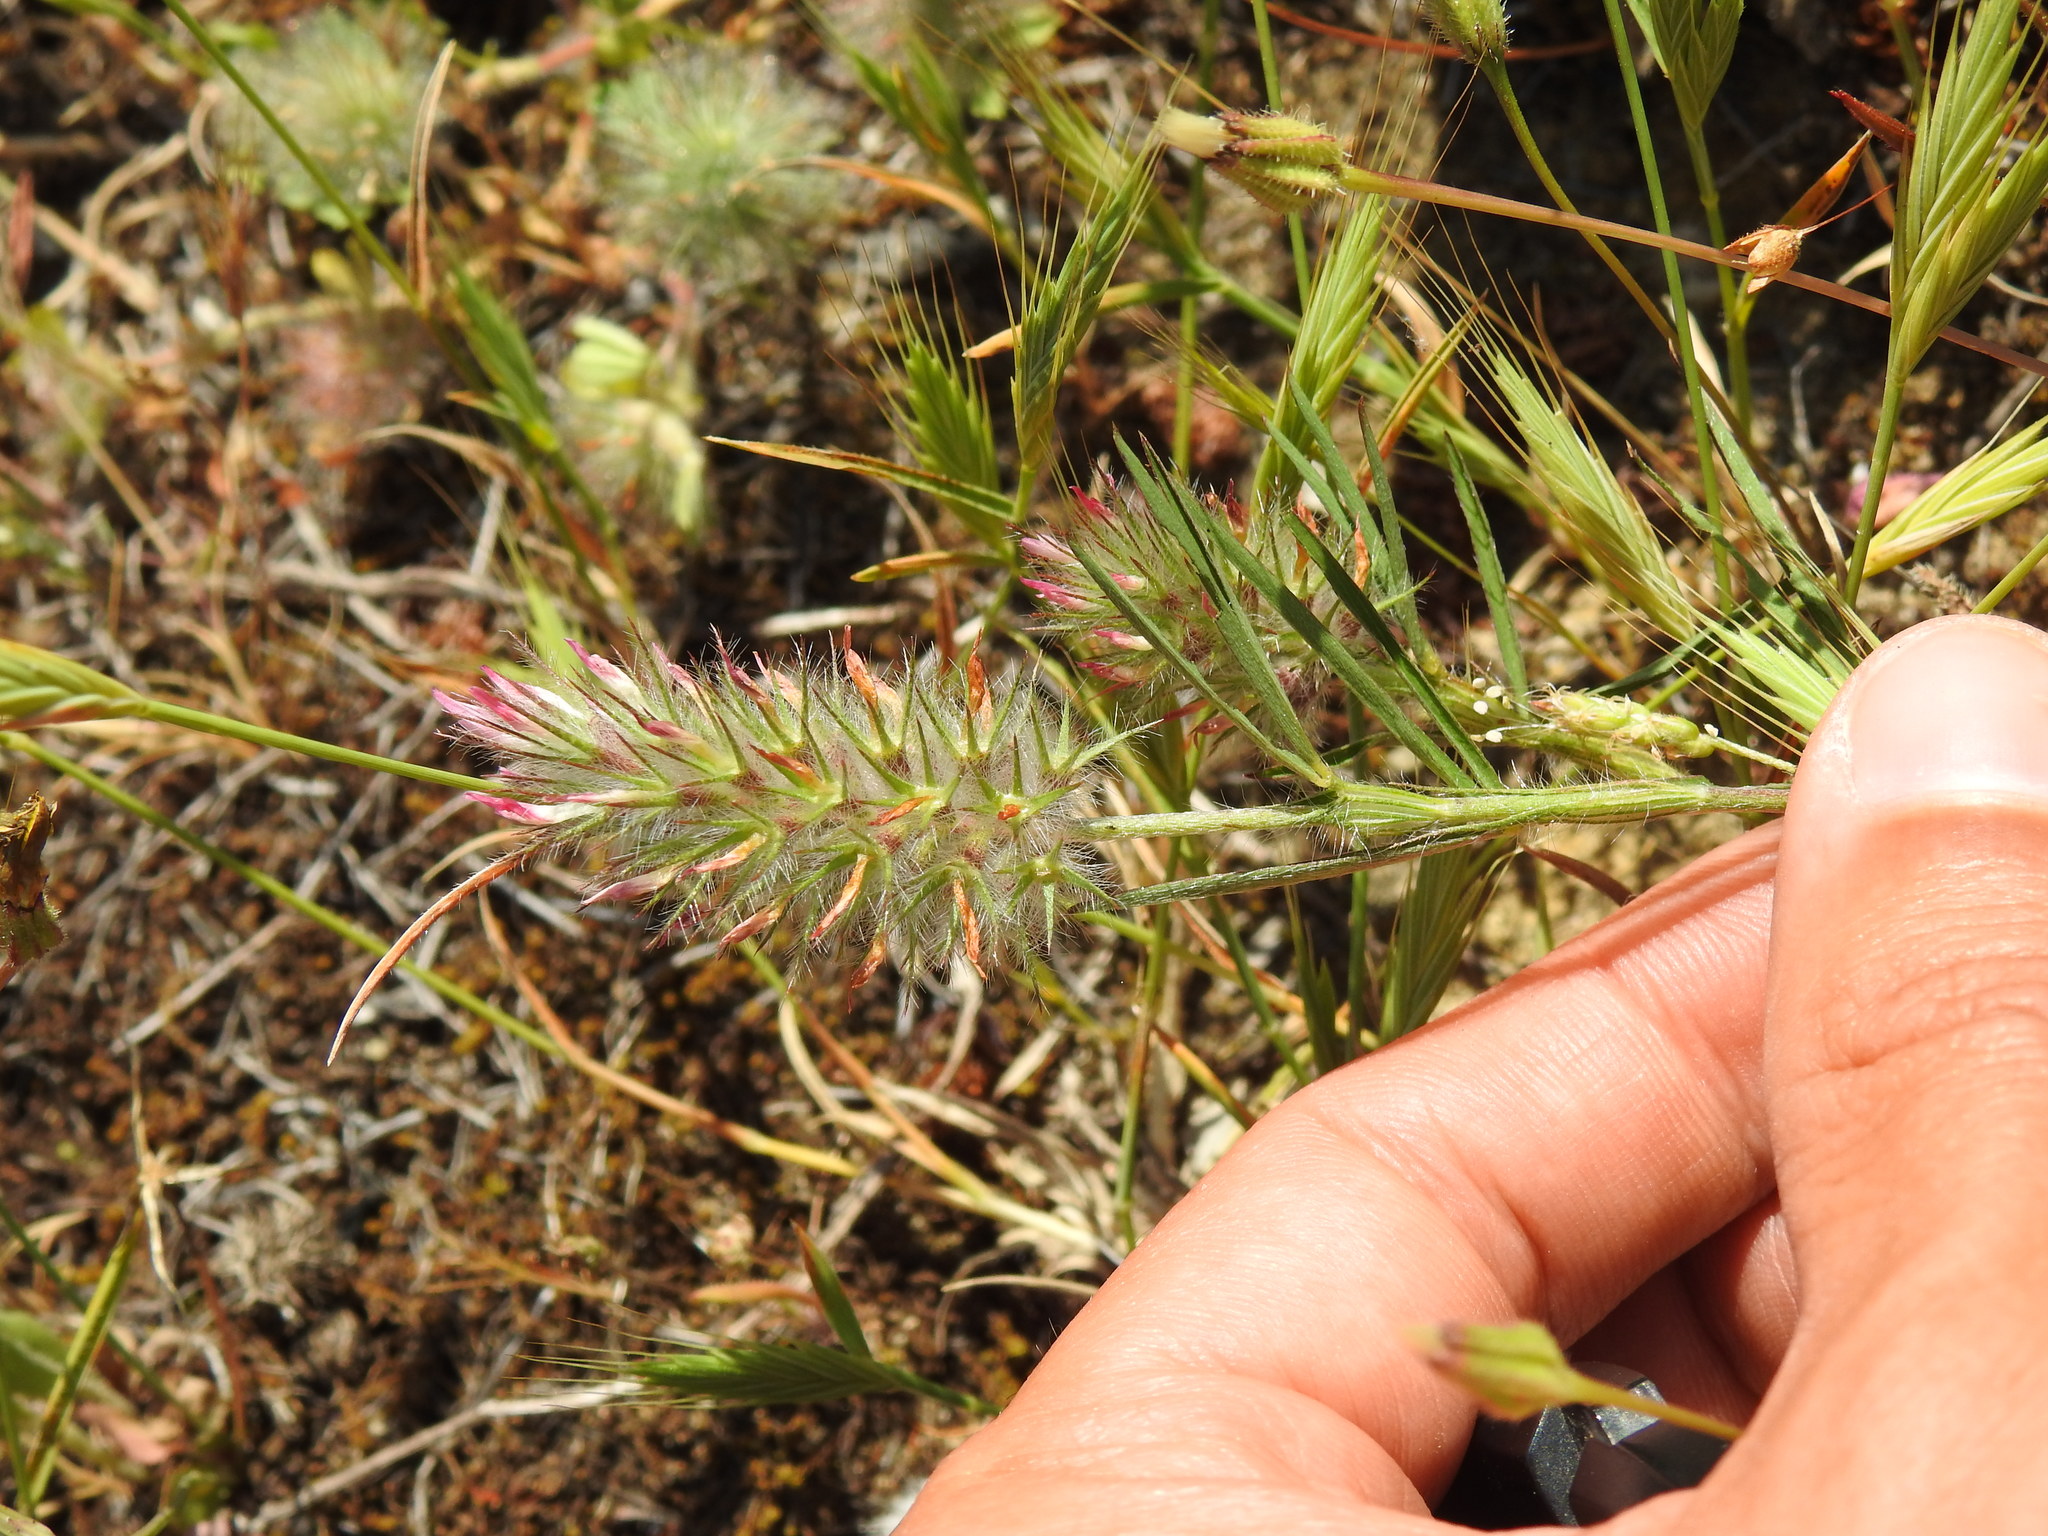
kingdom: Plantae
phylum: Tracheophyta
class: Magnoliopsida
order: Fabales
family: Fabaceae
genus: Trifolium
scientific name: Trifolium angustifolium
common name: Narrow clover
